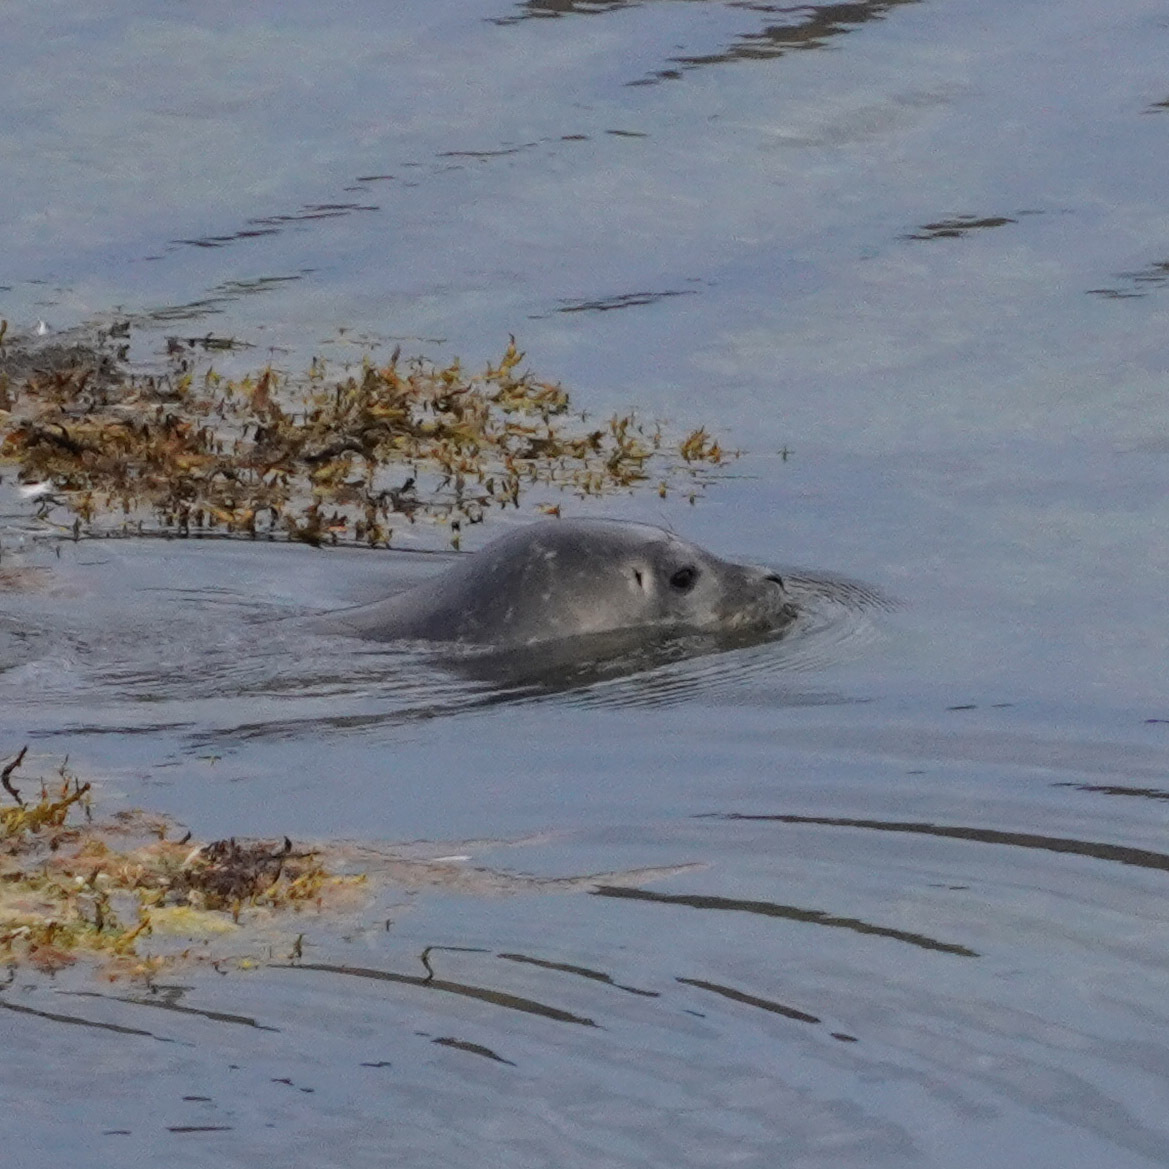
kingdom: Animalia
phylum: Chordata
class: Mammalia
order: Carnivora
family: Phocidae
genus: Phoca
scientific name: Phoca vitulina
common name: Harbor seal
